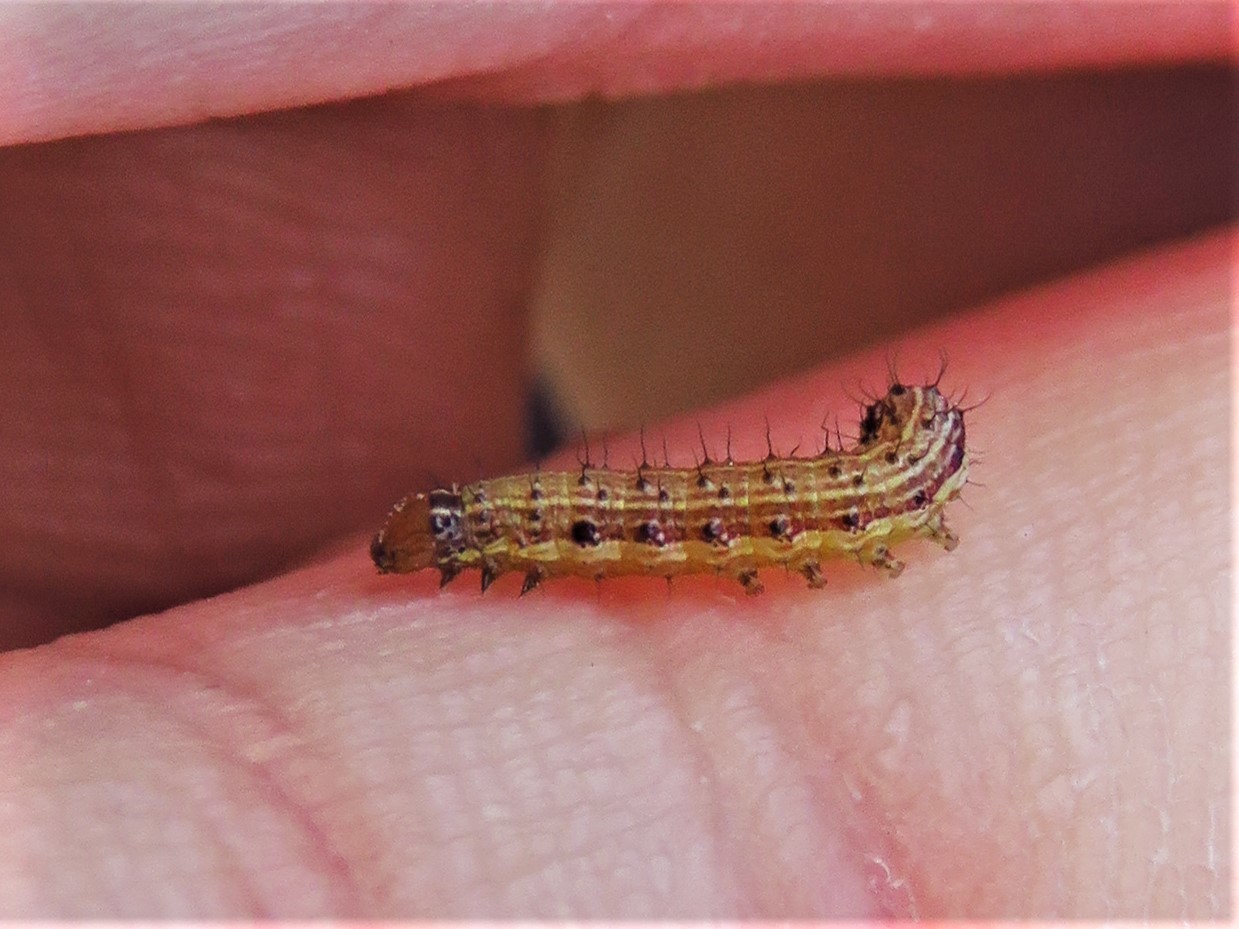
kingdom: Animalia
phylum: Arthropoda
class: Insecta
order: Lepidoptera
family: Noctuidae
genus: Spodoptera
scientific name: Spodoptera frugiperda
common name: Fall armyworm
